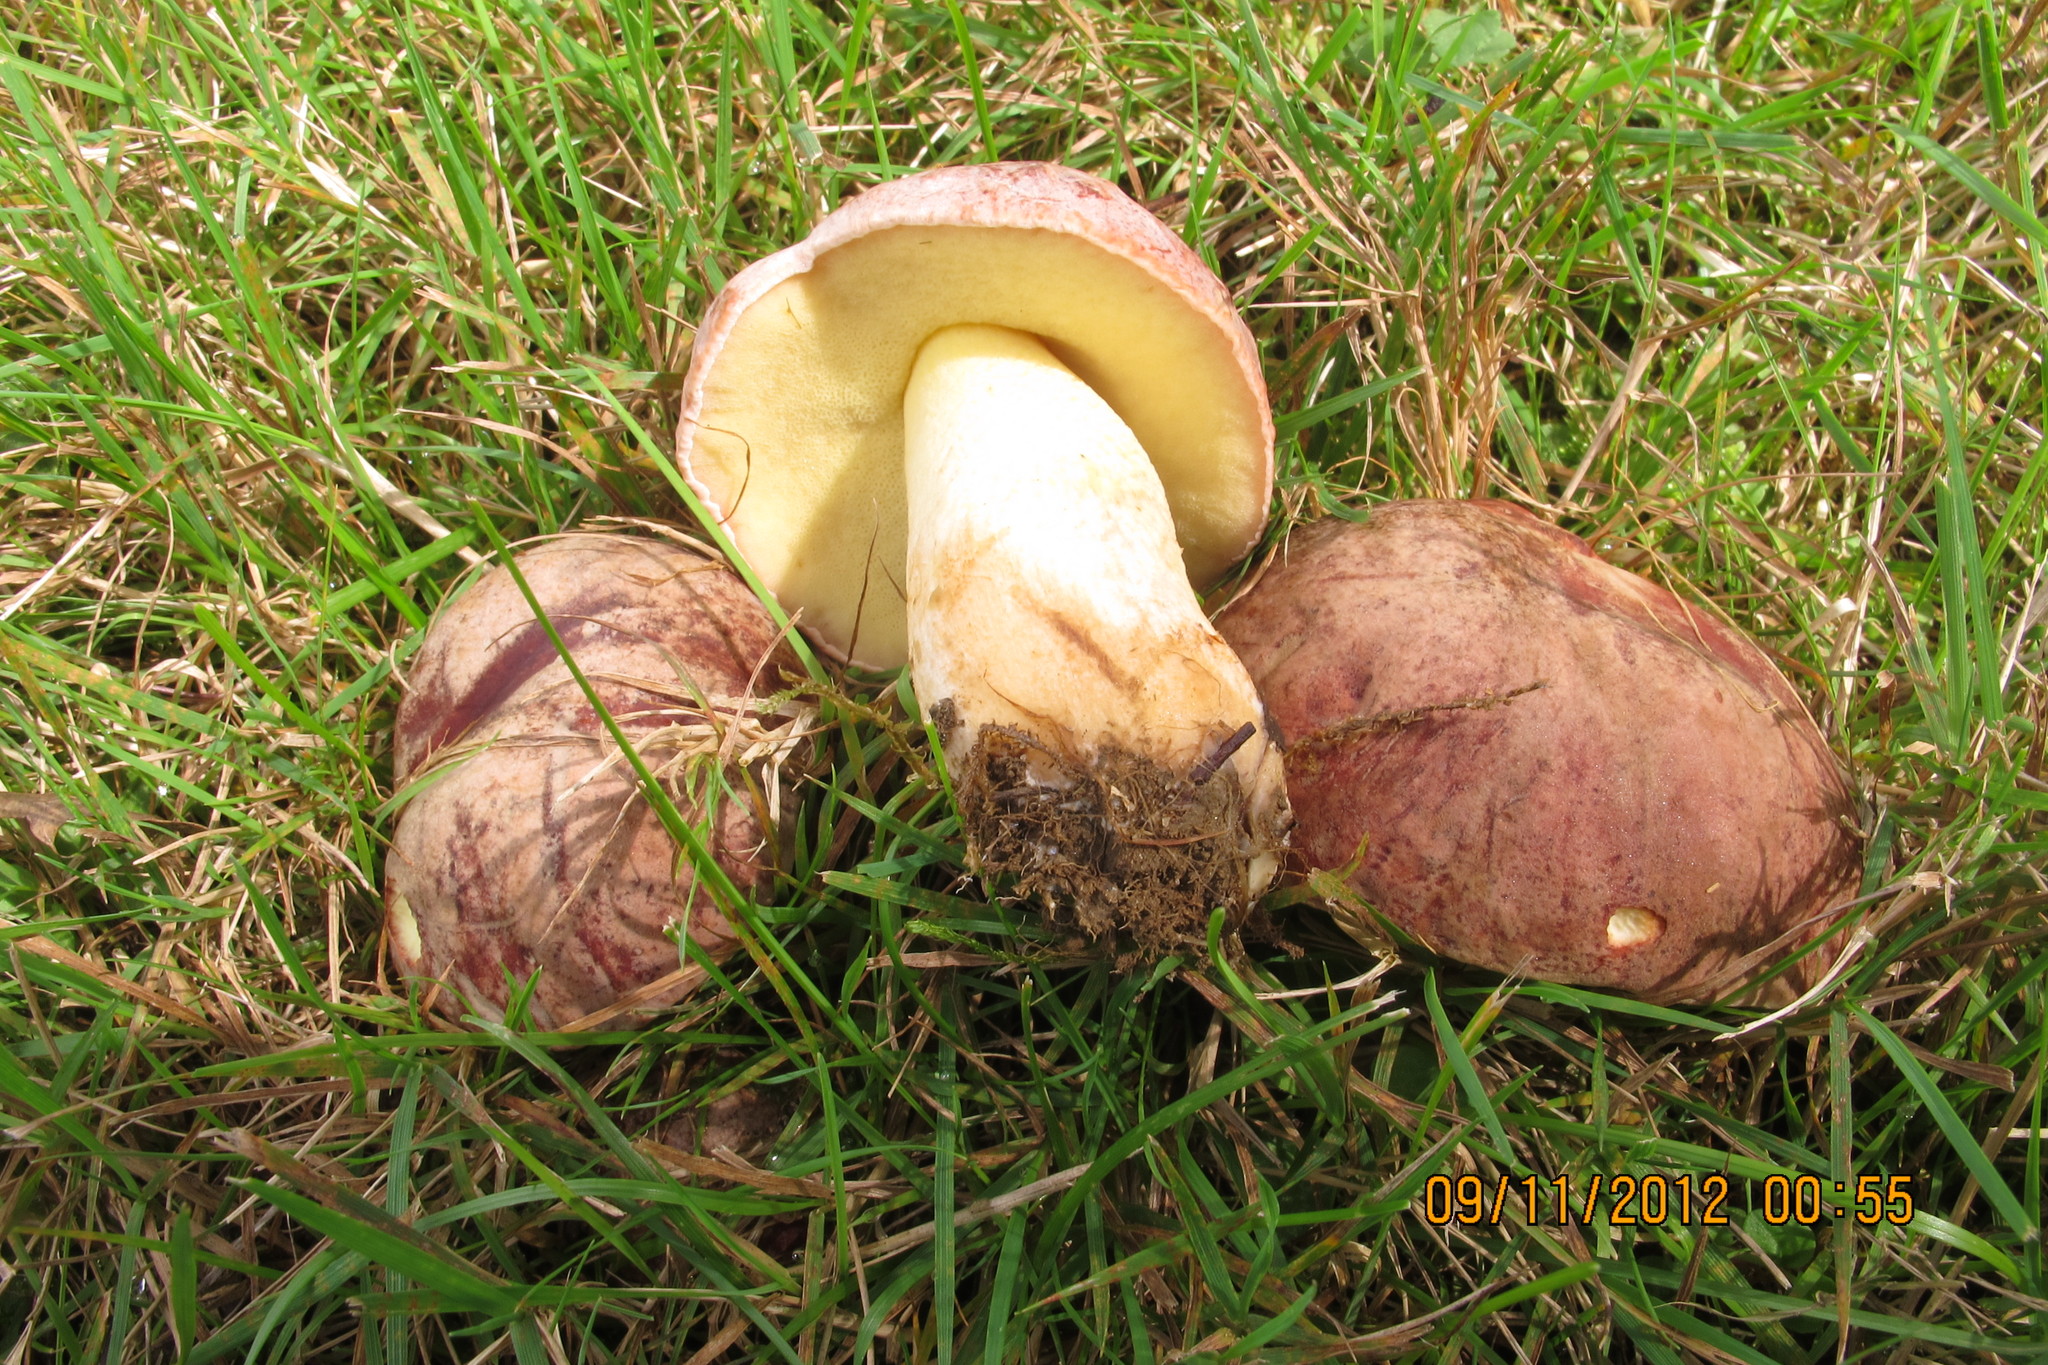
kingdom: Fungi
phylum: Basidiomycota
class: Agaricomycetes
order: Boletales
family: Boletaceae
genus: Hemileccinum
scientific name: Hemileccinum subglabripes
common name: Smoothish-stemmed bolete
